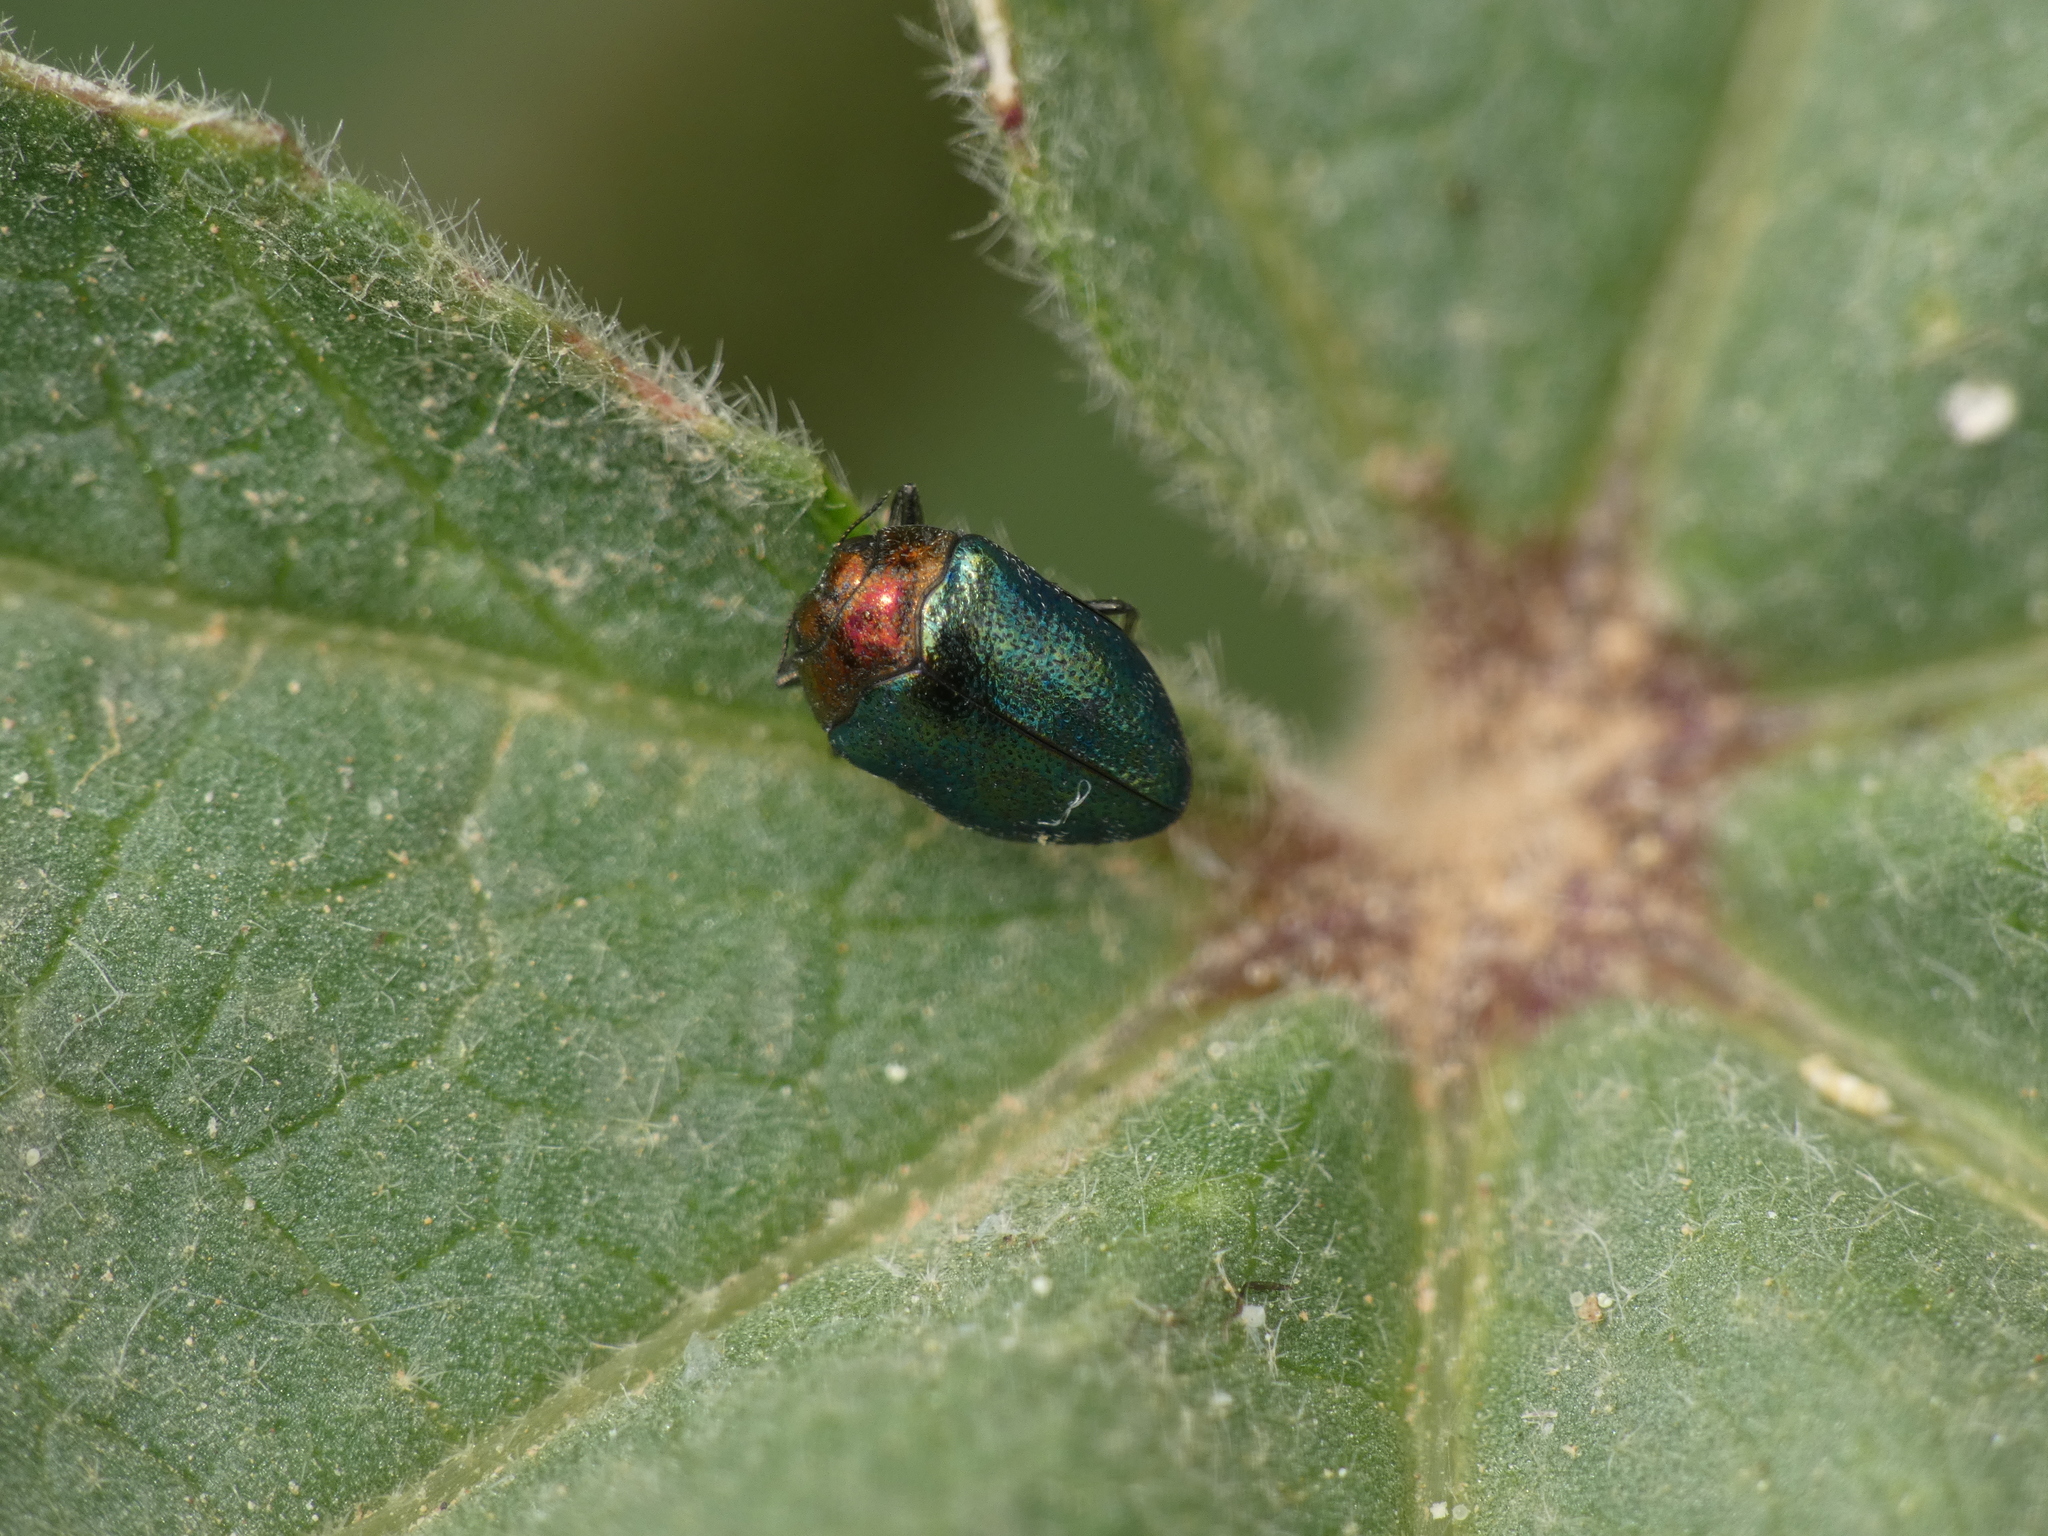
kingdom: Animalia
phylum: Arthropoda
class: Insecta
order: Coleoptera
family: Buprestidae
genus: Trachys
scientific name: Trachys troglodytiformis
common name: Metallic wood-boring beetle
